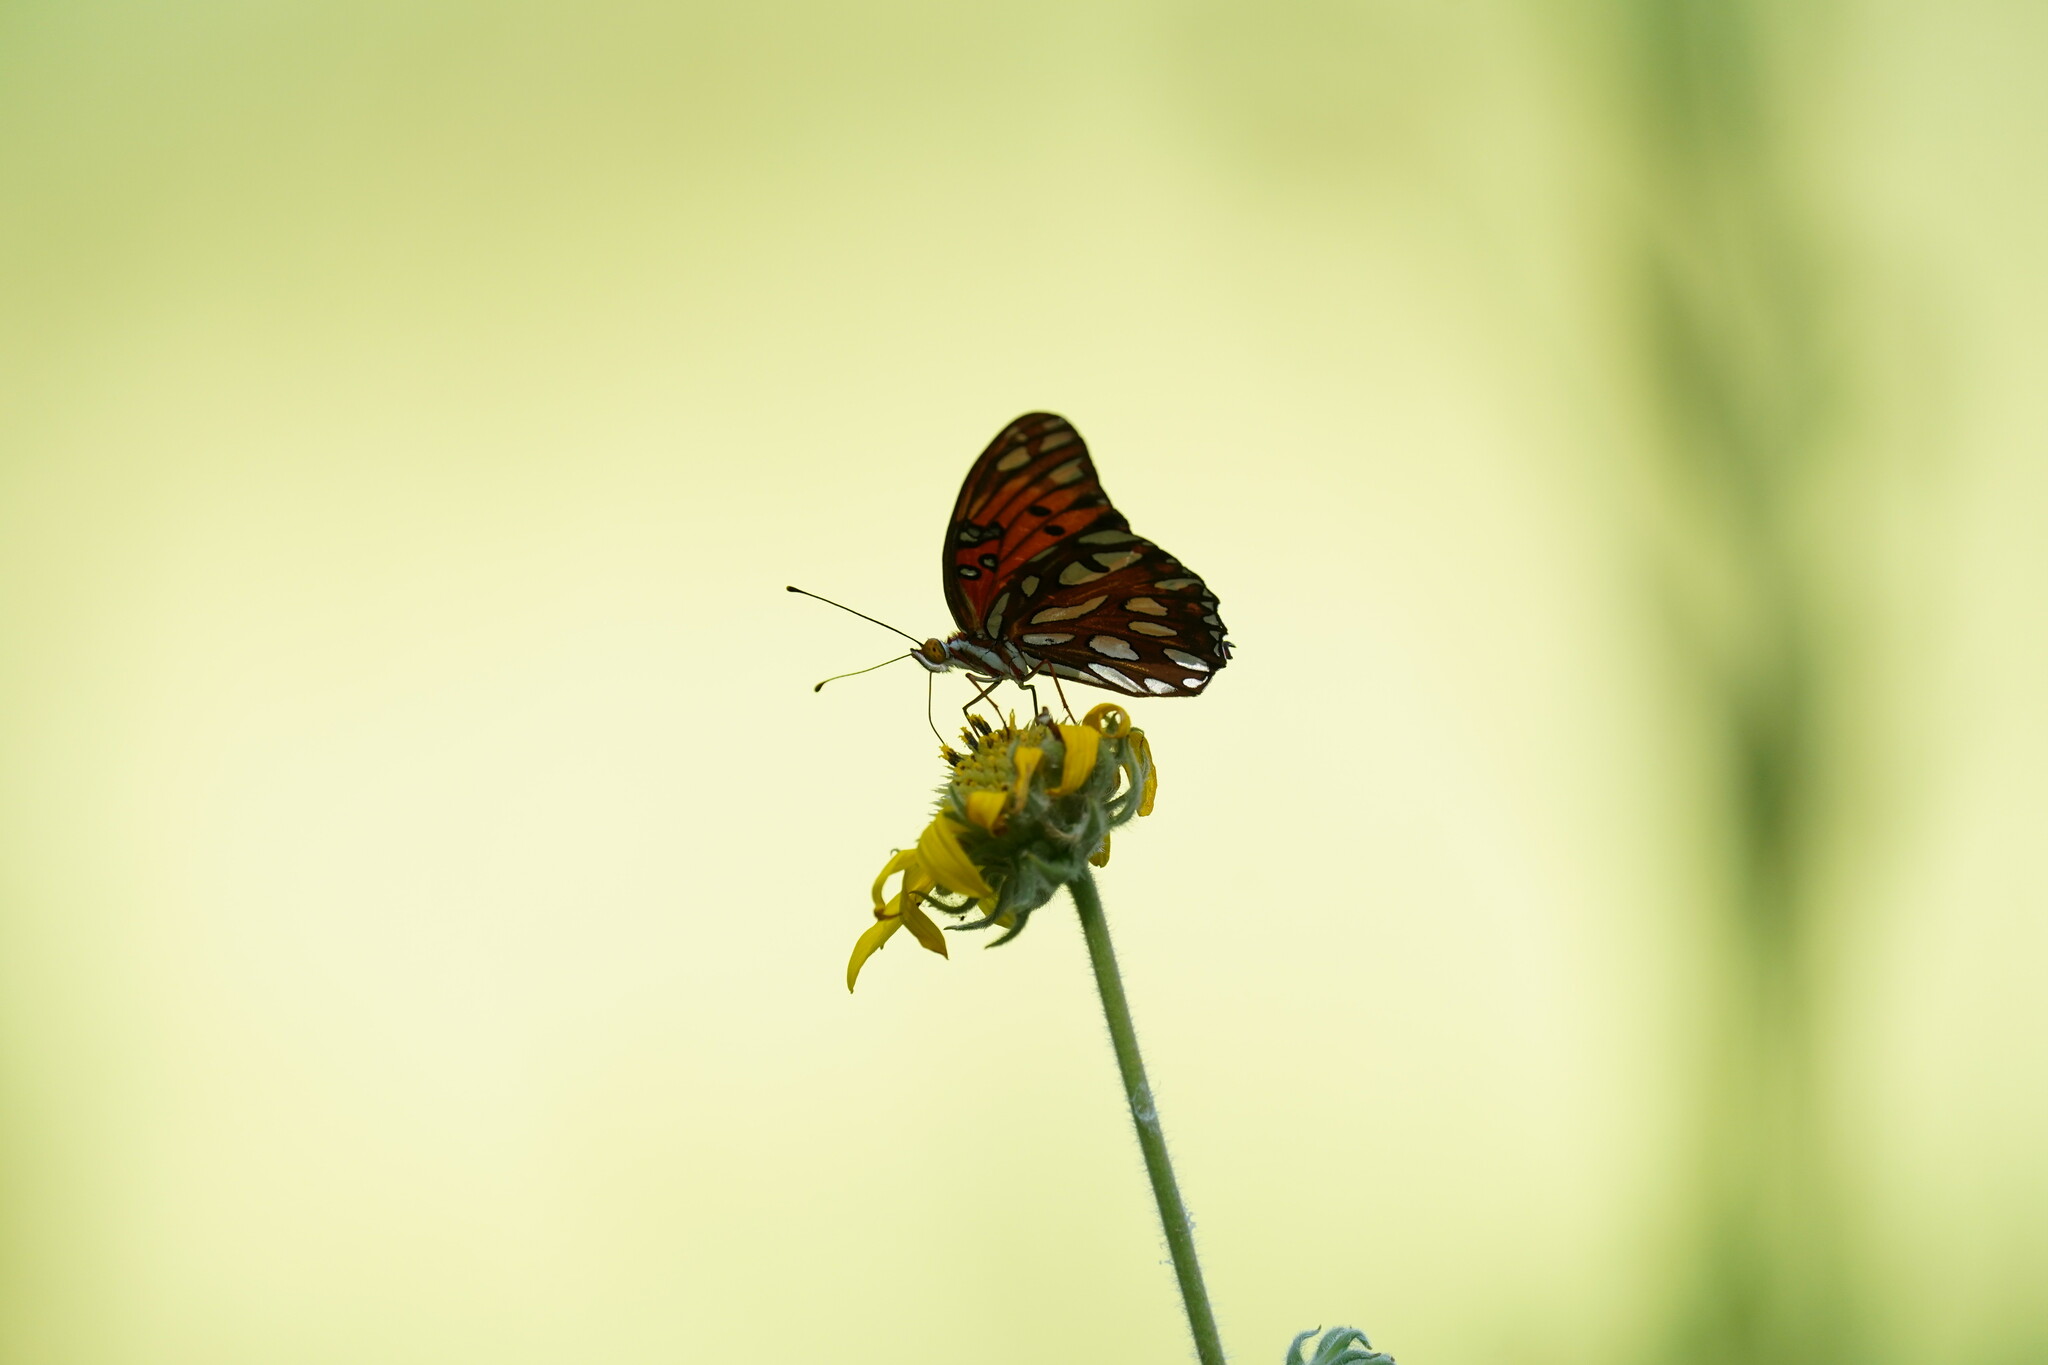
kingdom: Animalia
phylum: Arthropoda
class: Insecta
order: Lepidoptera
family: Nymphalidae
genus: Dione
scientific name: Dione vanillae
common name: Gulf fritillary
